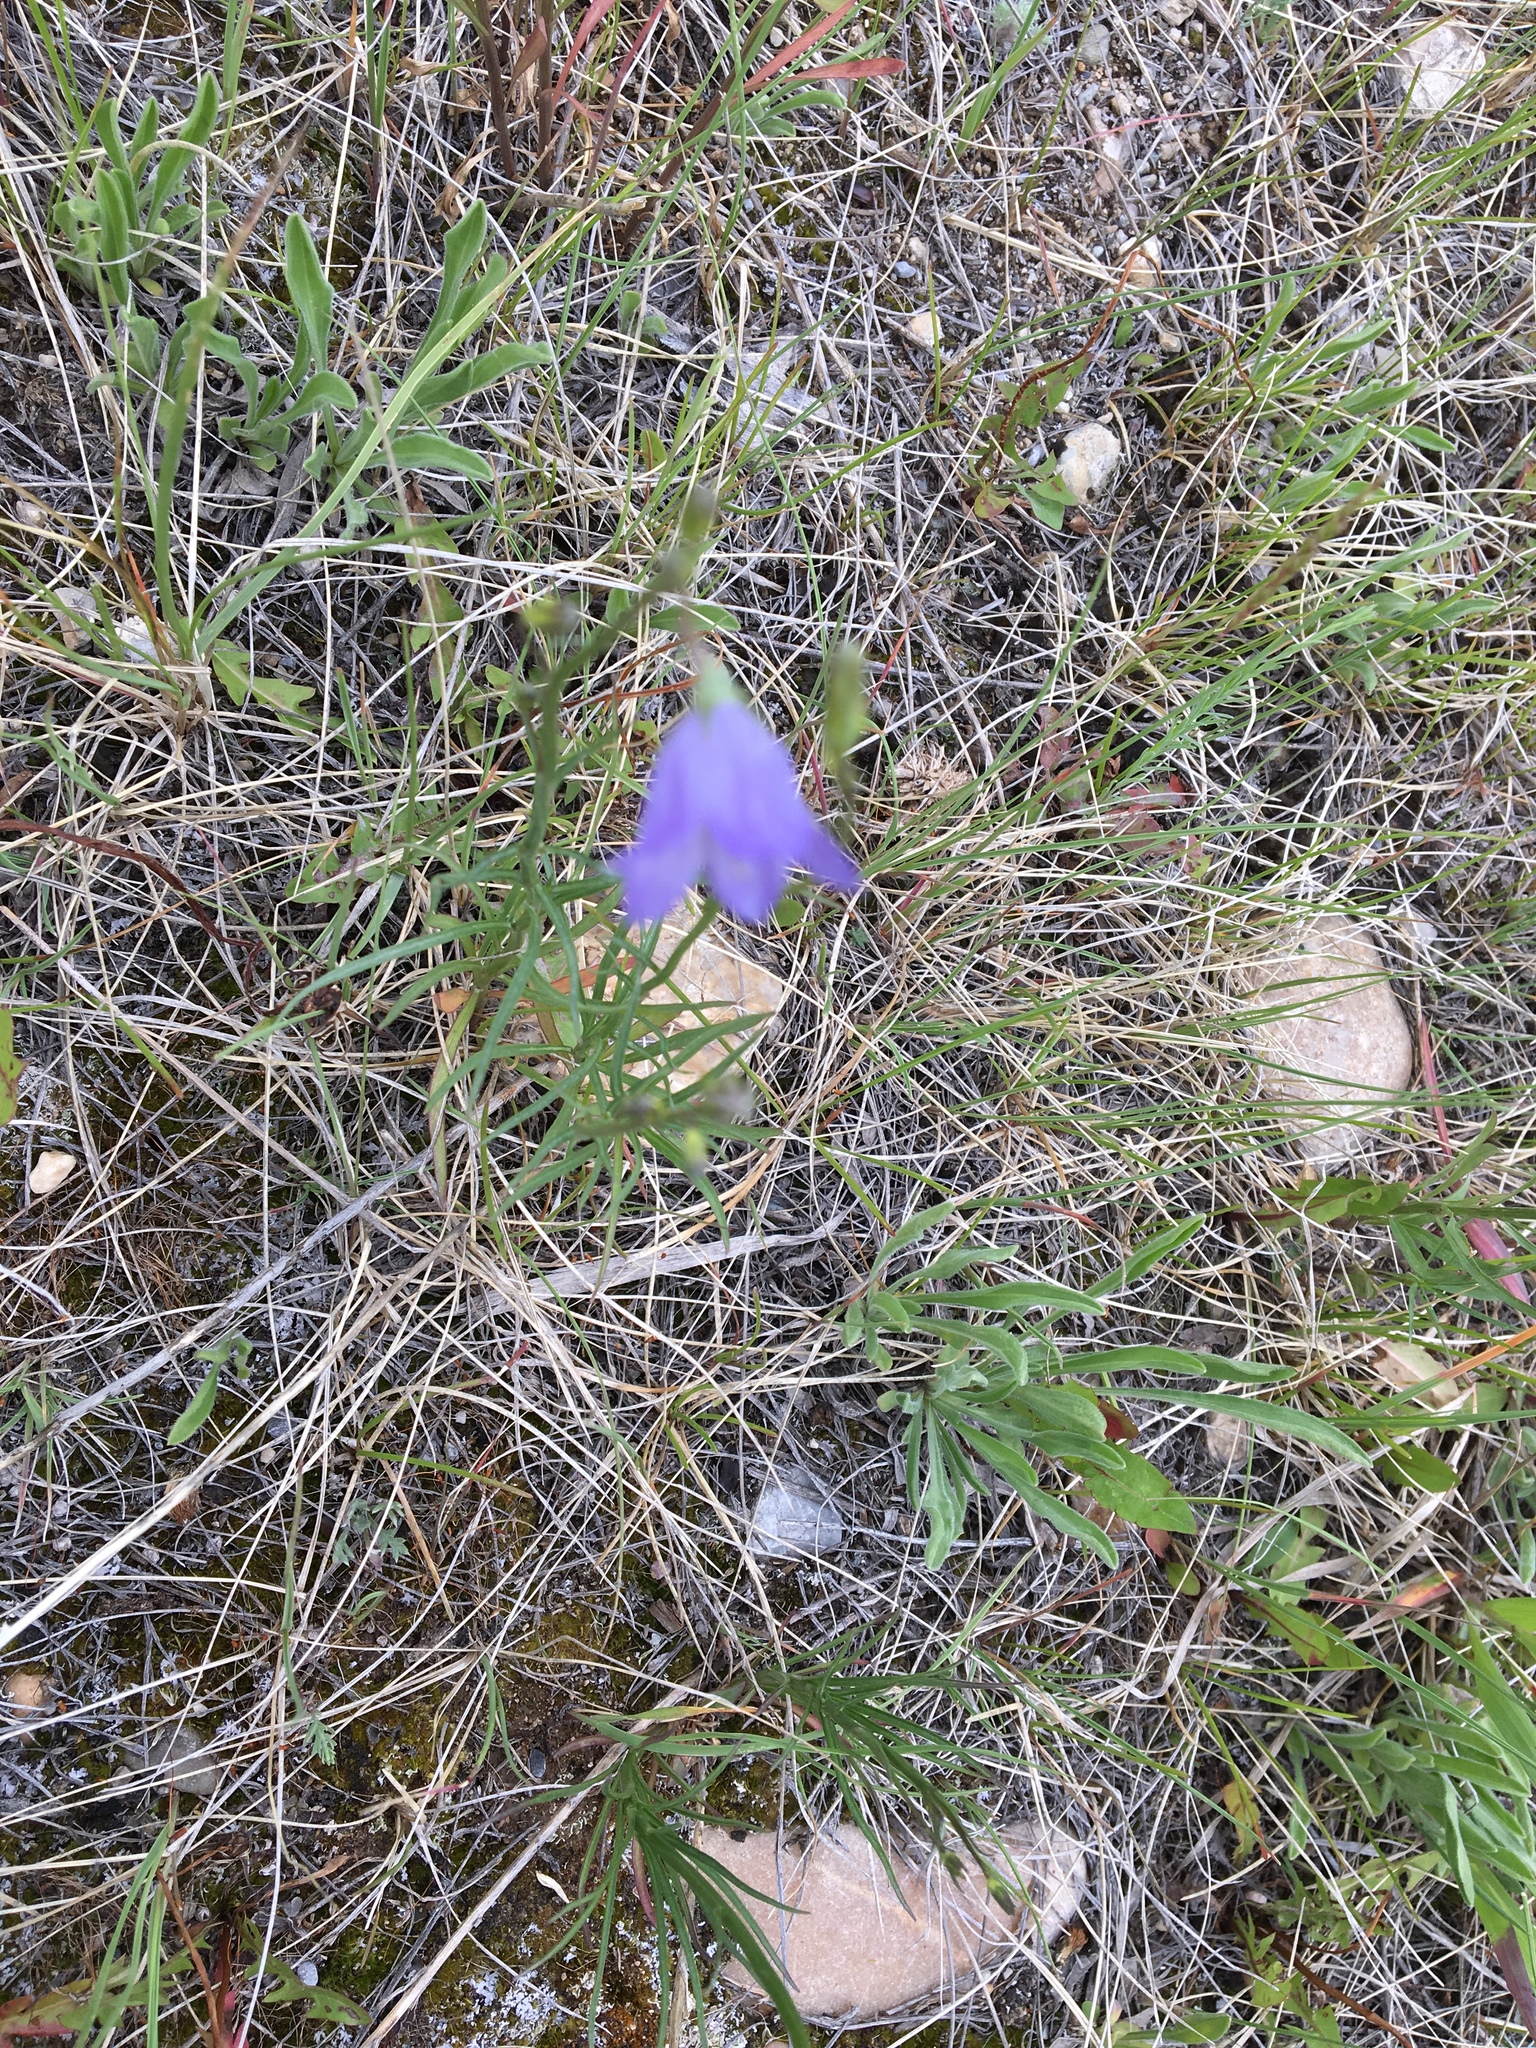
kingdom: Plantae
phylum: Tracheophyta
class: Magnoliopsida
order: Asterales
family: Campanulaceae
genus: Campanula
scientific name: Campanula alaskana
